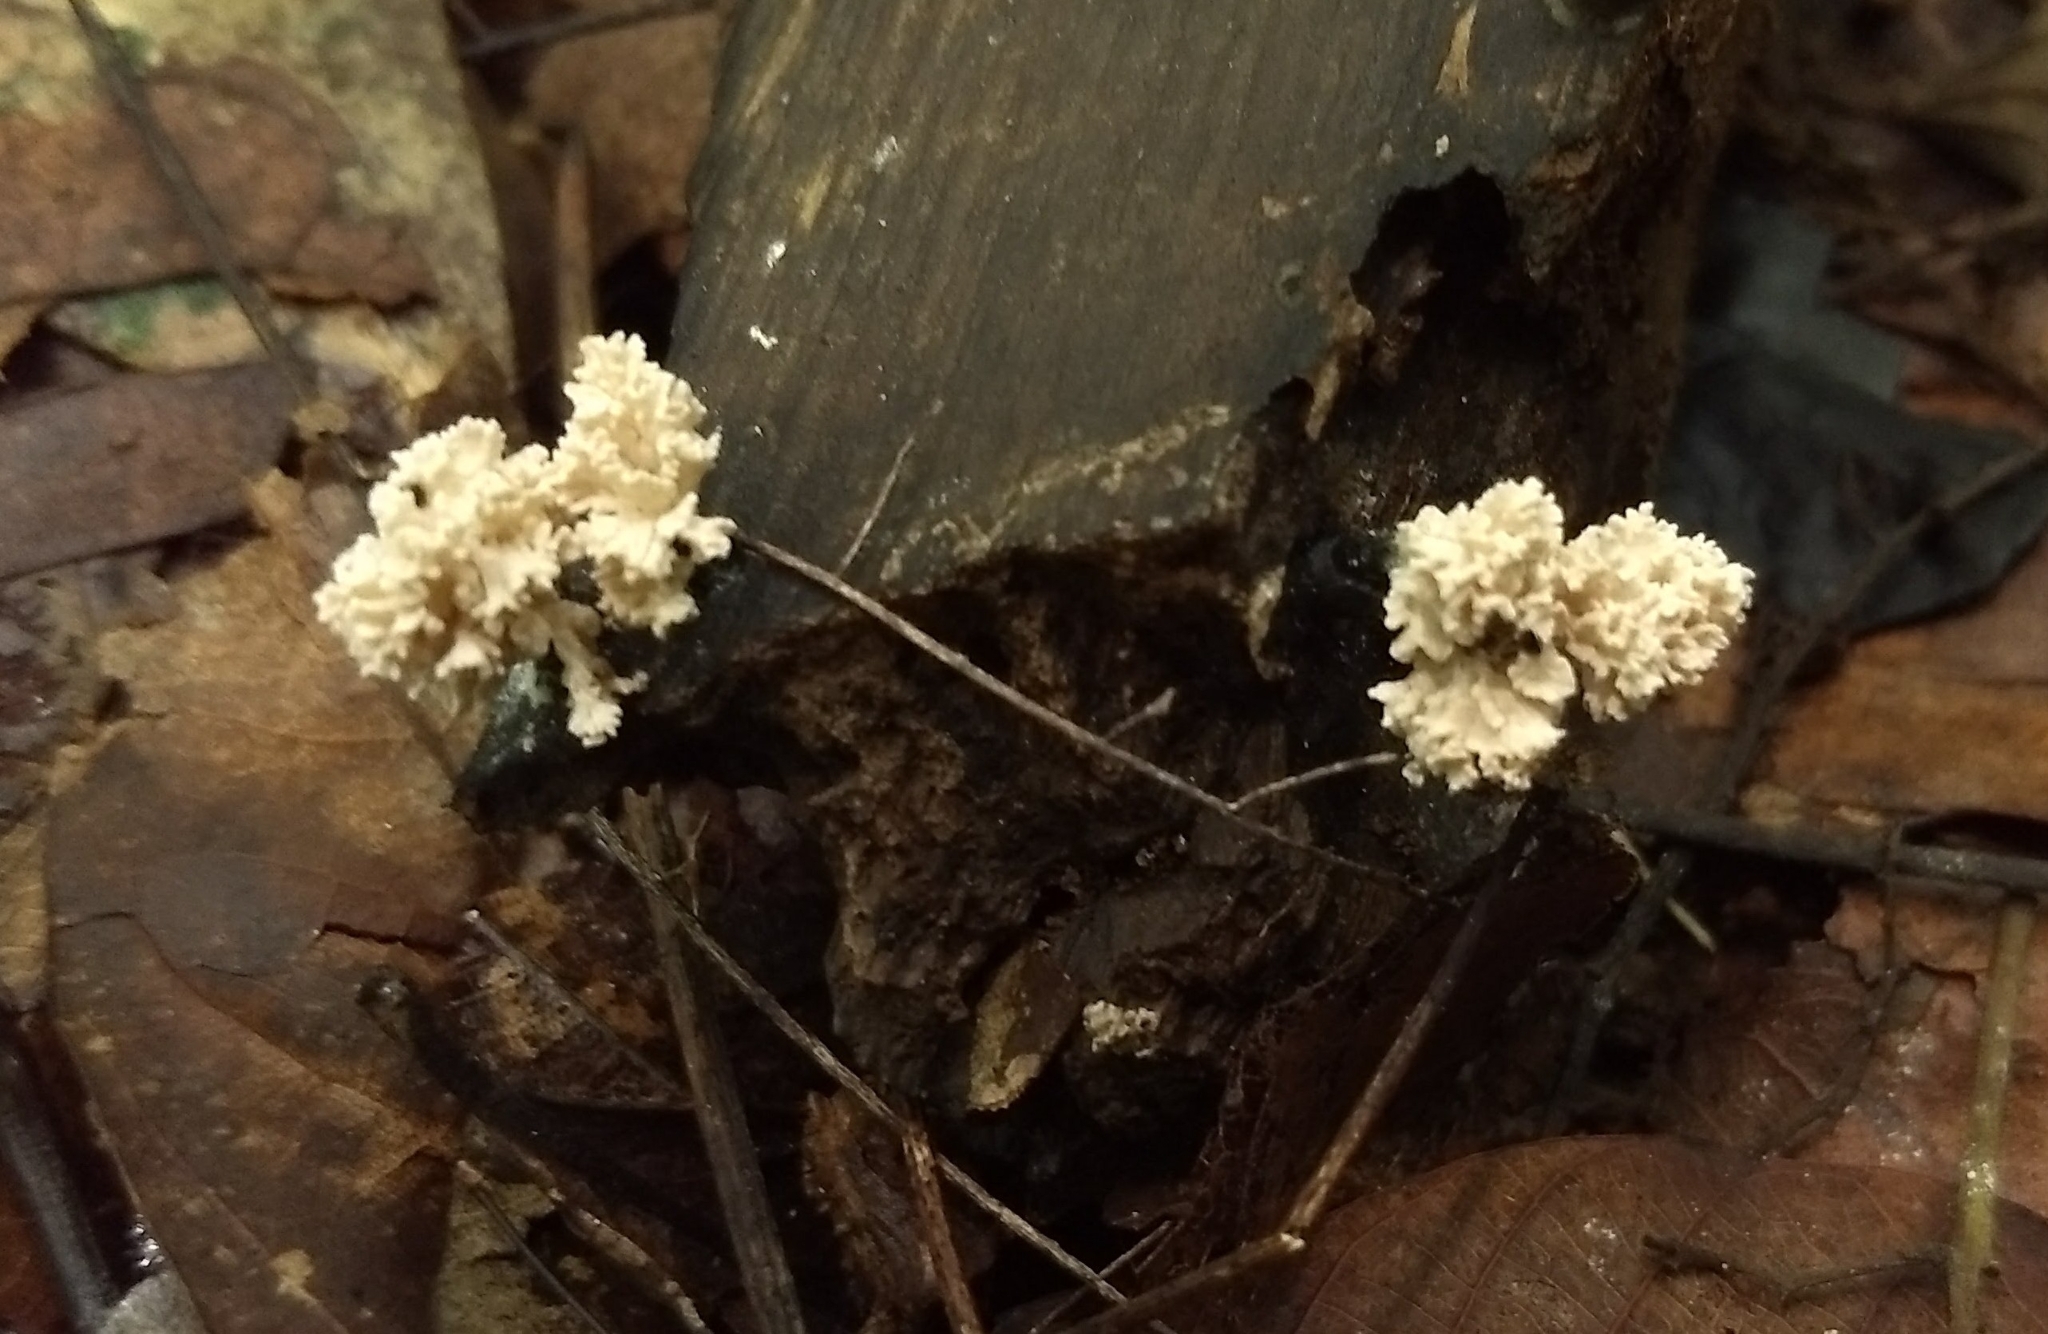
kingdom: Fungi
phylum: Ascomycota
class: Sordariomycetes
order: Xylariales
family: Xylariaceae
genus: Xylaria
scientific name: Xylaria cubensis
